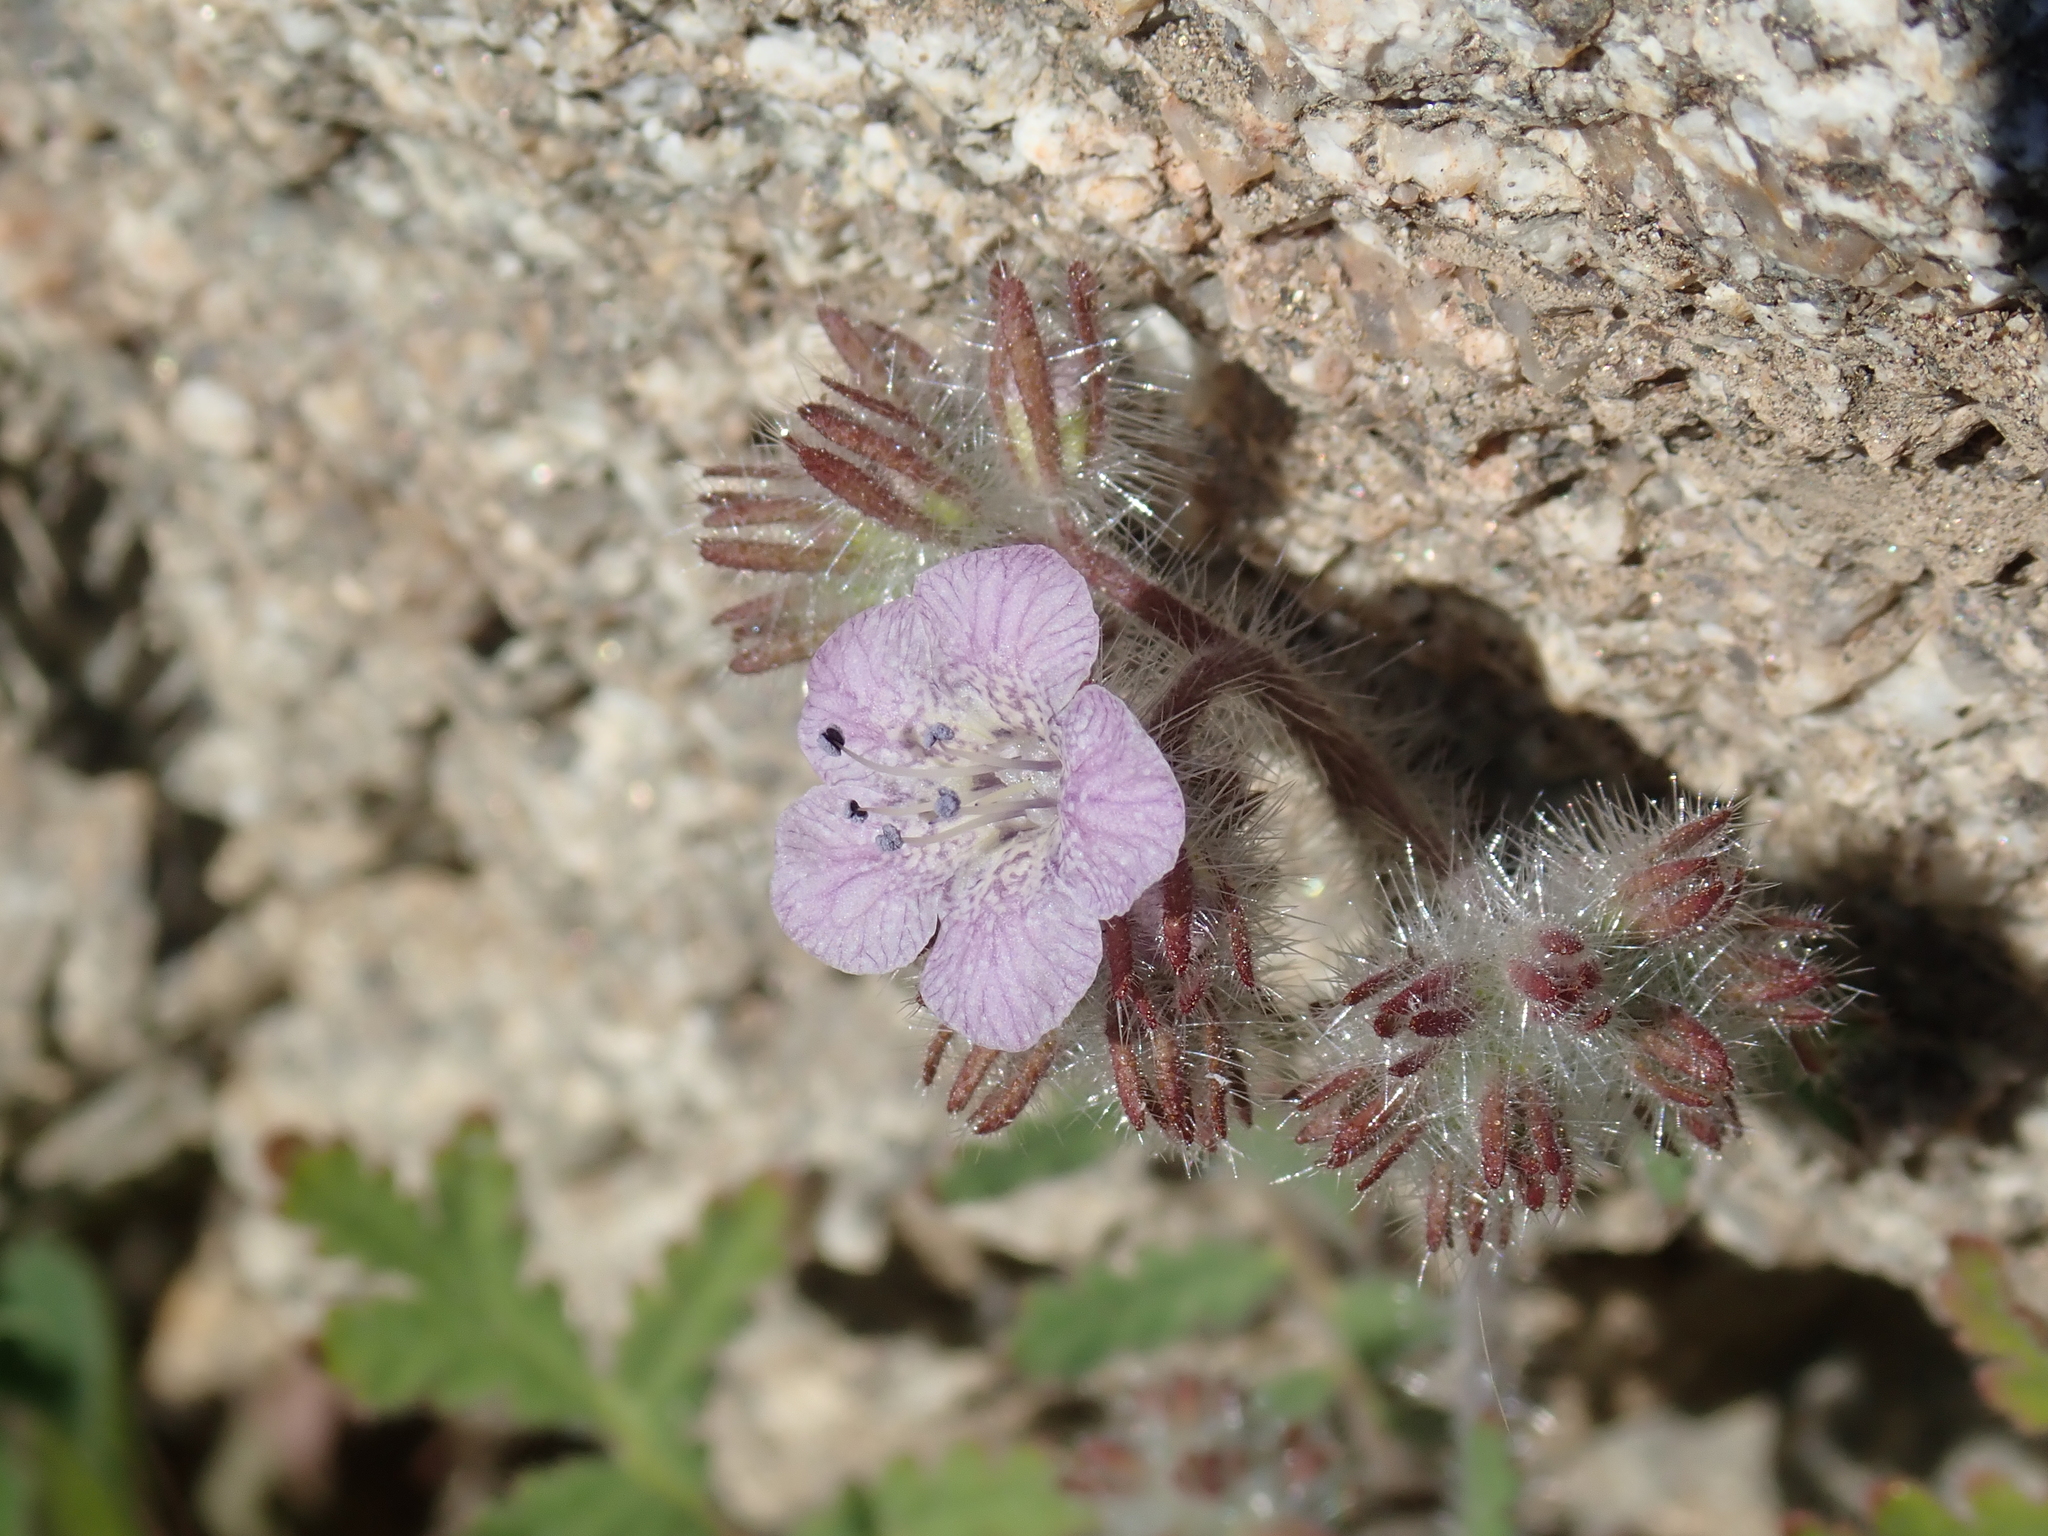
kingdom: Plantae
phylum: Tracheophyta
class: Magnoliopsida
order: Boraginales
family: Hydrophyllaceae
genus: Phacelia
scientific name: Phacelia cicutaria
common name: Caterpillar phacelia
